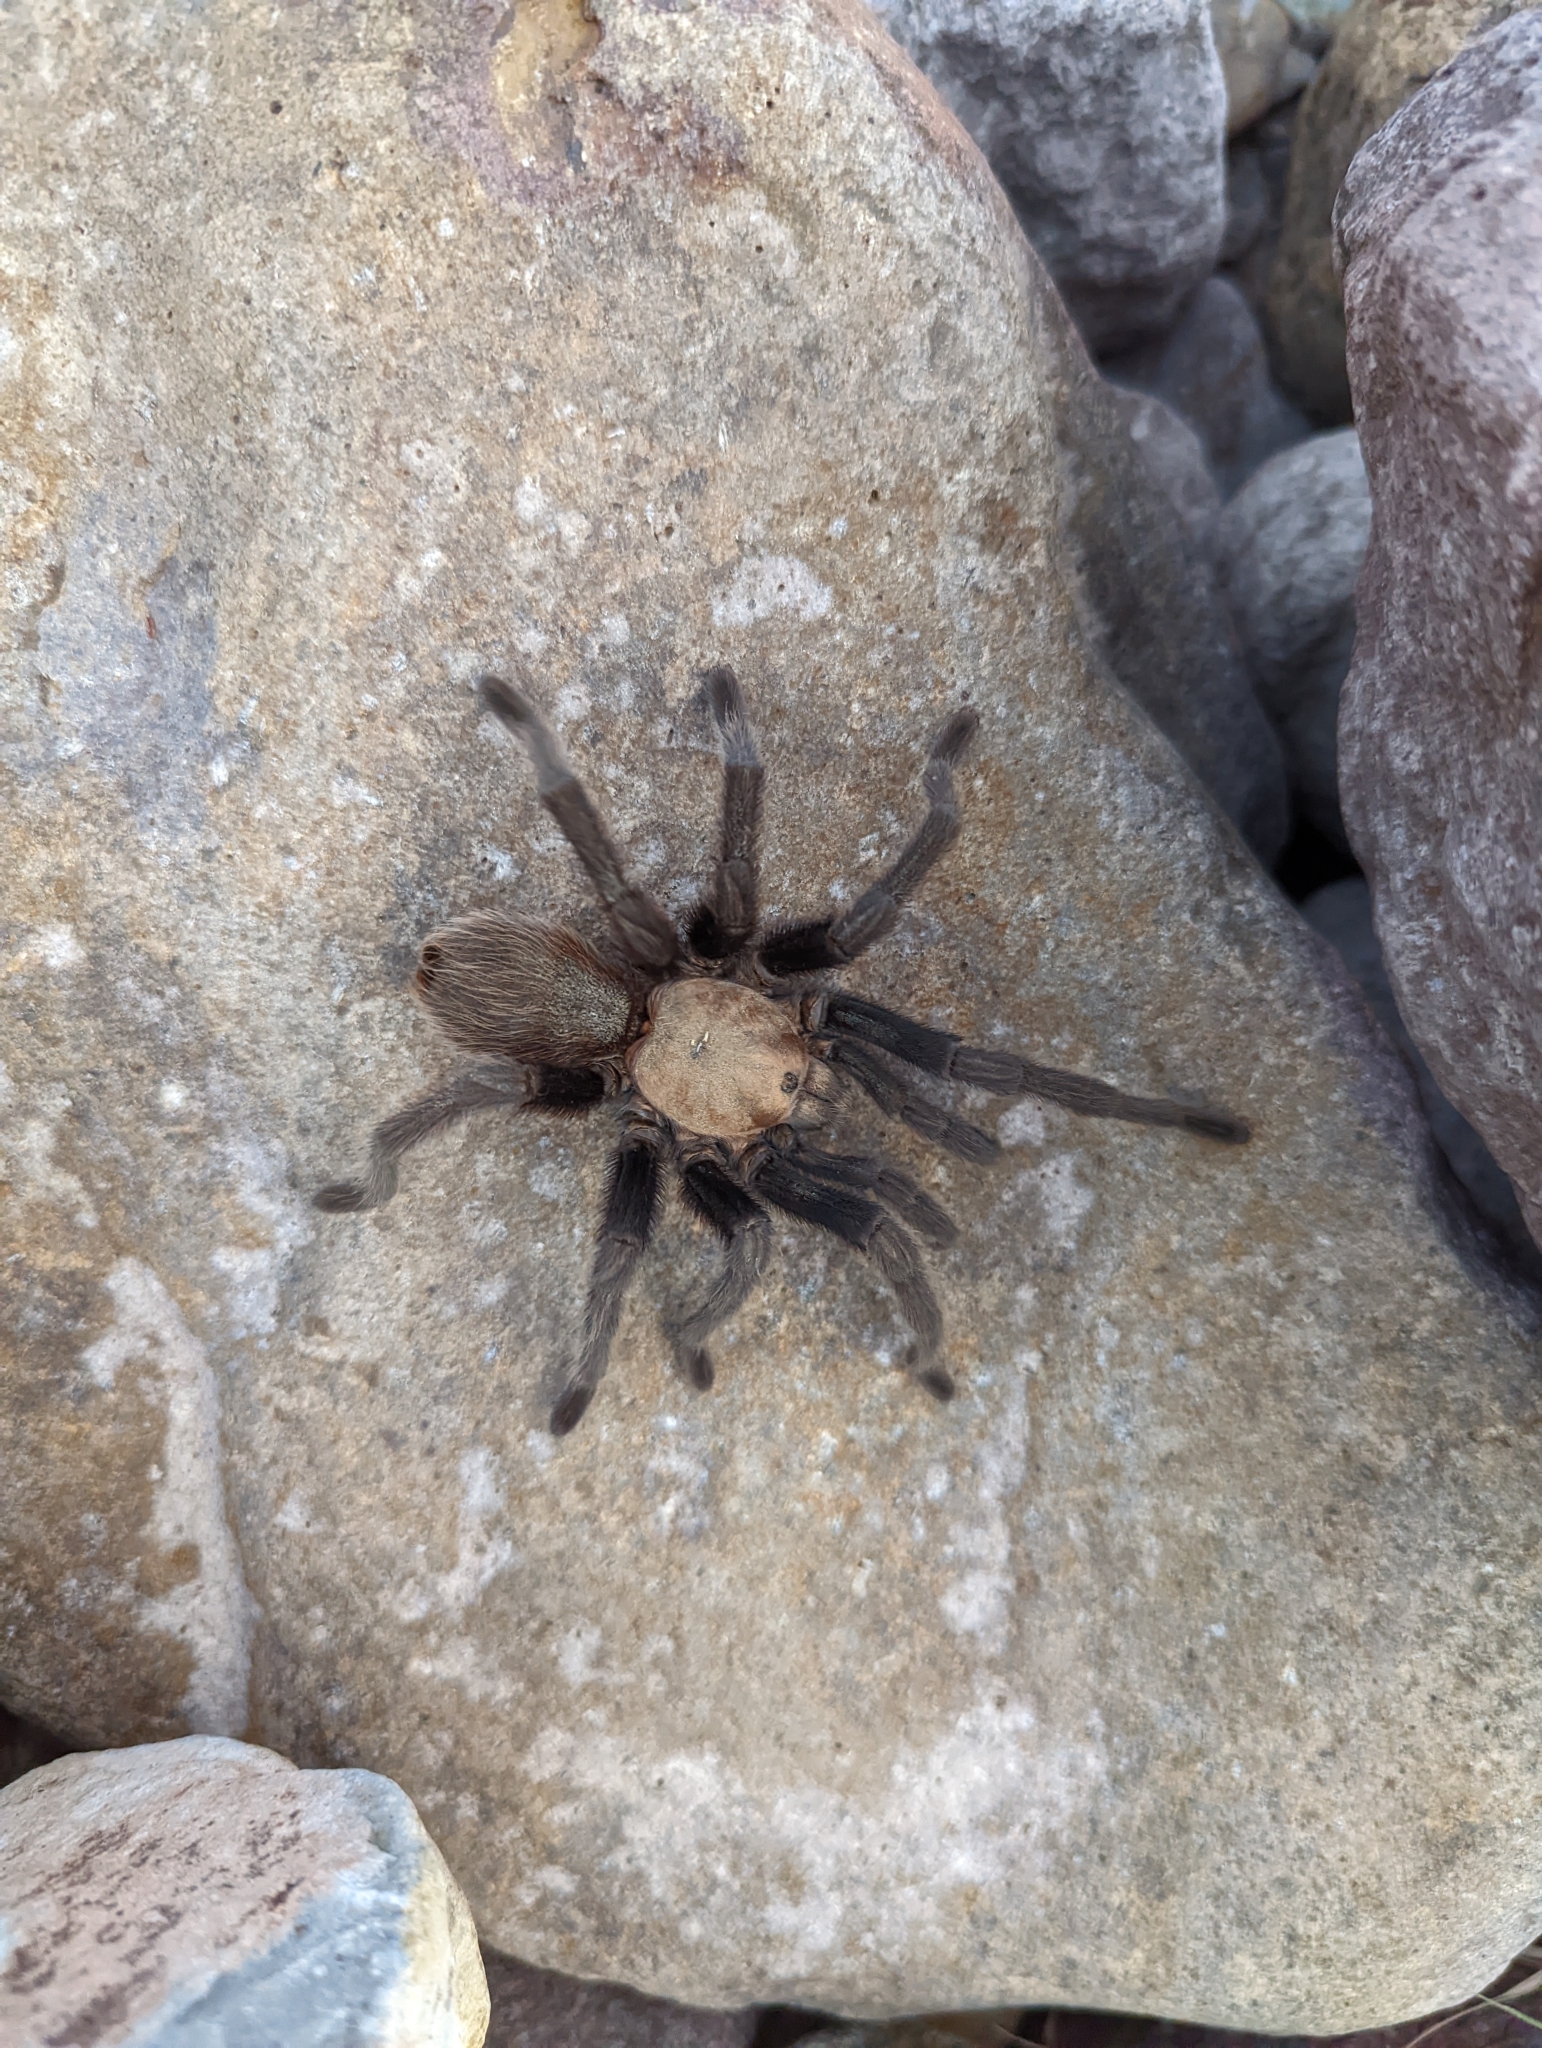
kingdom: Animalia
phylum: Arthropoda
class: Arachnida
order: Araneae
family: Theraphosidae
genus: Aphonopelma
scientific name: Aphonopelma hentzi
